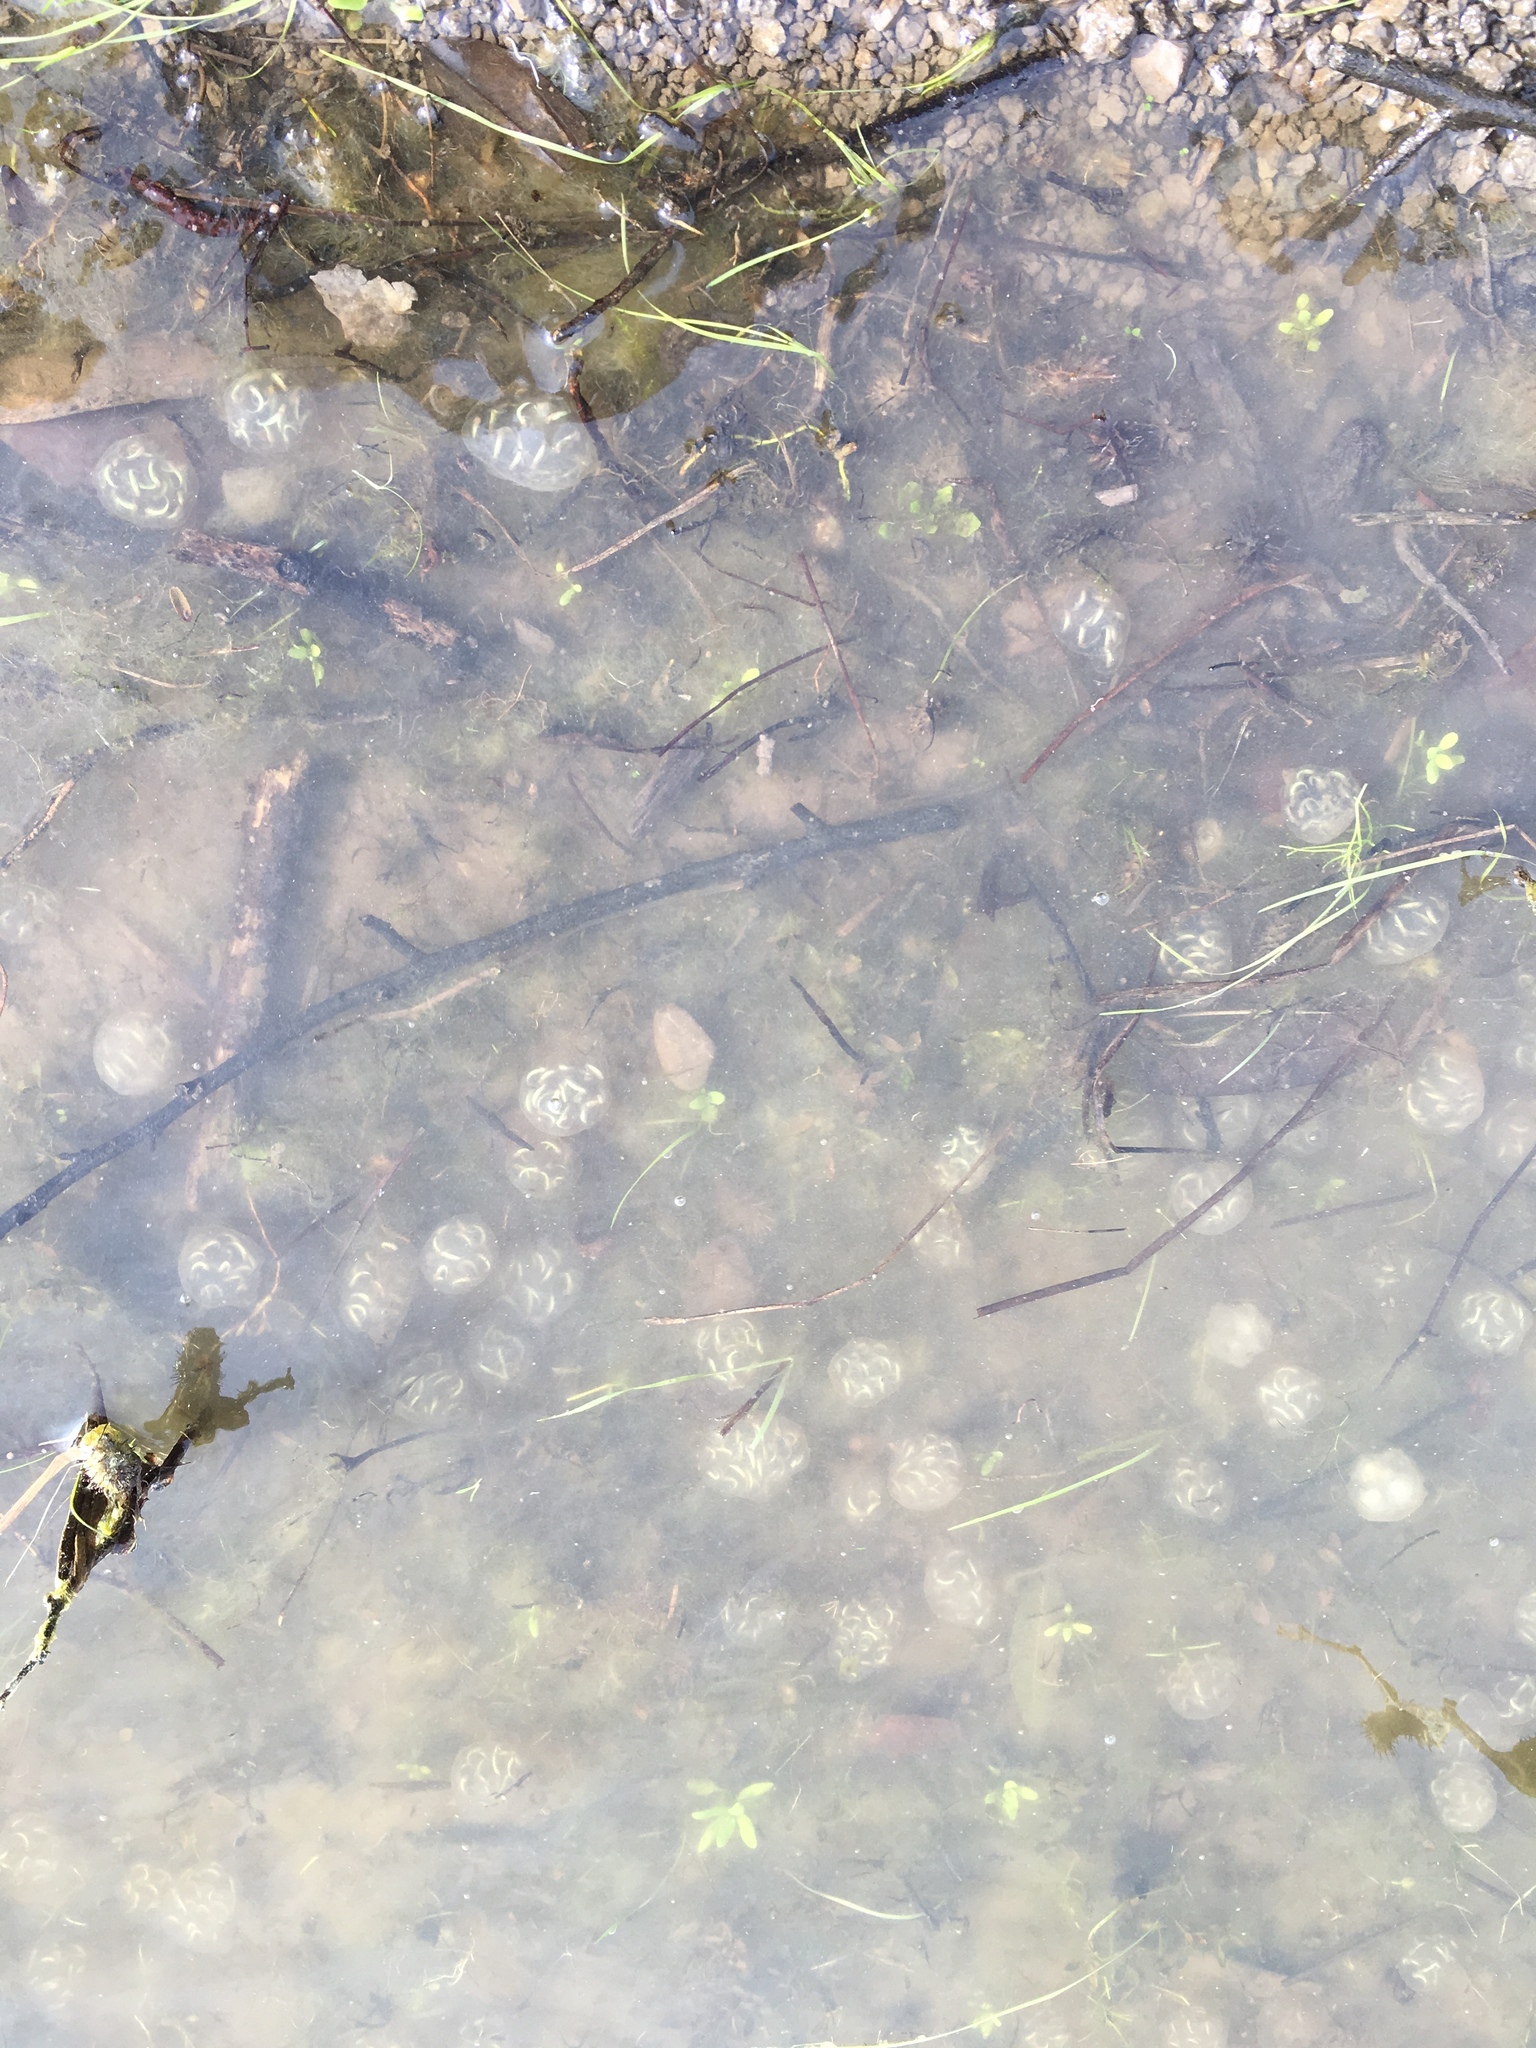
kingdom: Animalia
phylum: Chordata
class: Amphibia
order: Caudata
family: Salamandridae
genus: Taricha
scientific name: Taricha torosa
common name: California newt
